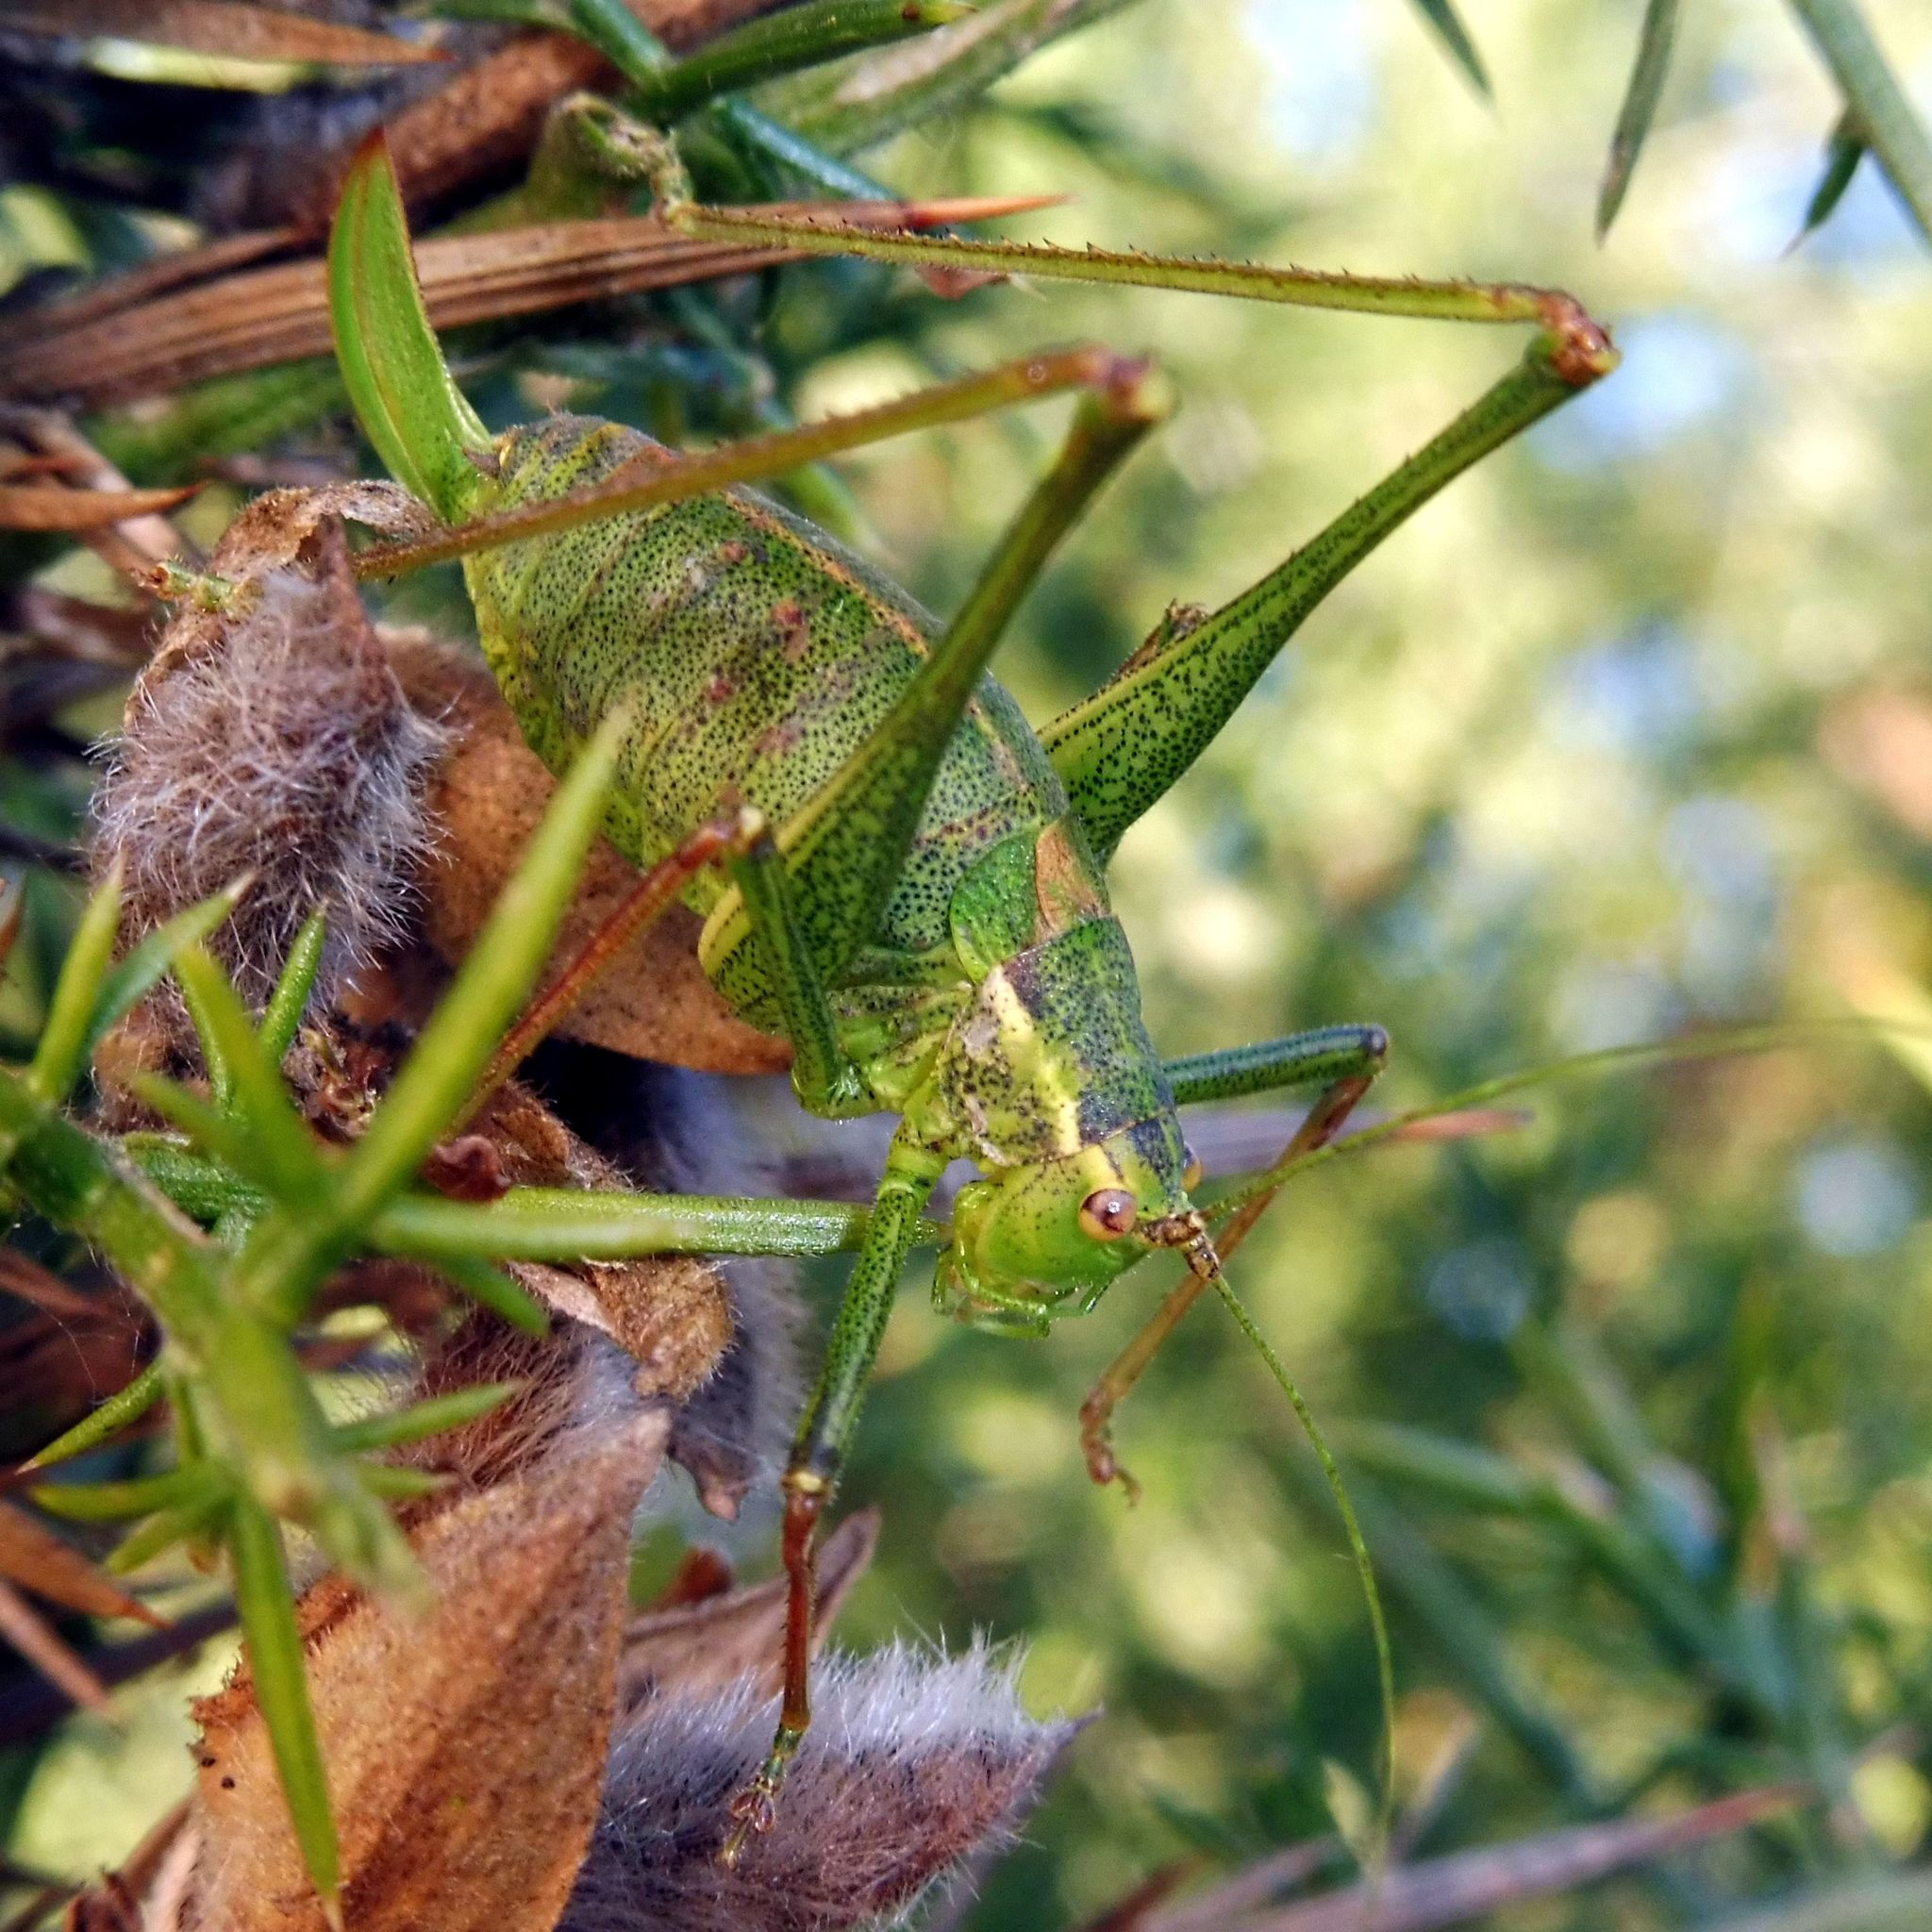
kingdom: Animalia
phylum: Arthropoda
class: Insecta
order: Orthoptera
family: Tettigoniidae
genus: Leptophyes
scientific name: Leptophyes punctatissima
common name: Speckled bush-cricket
